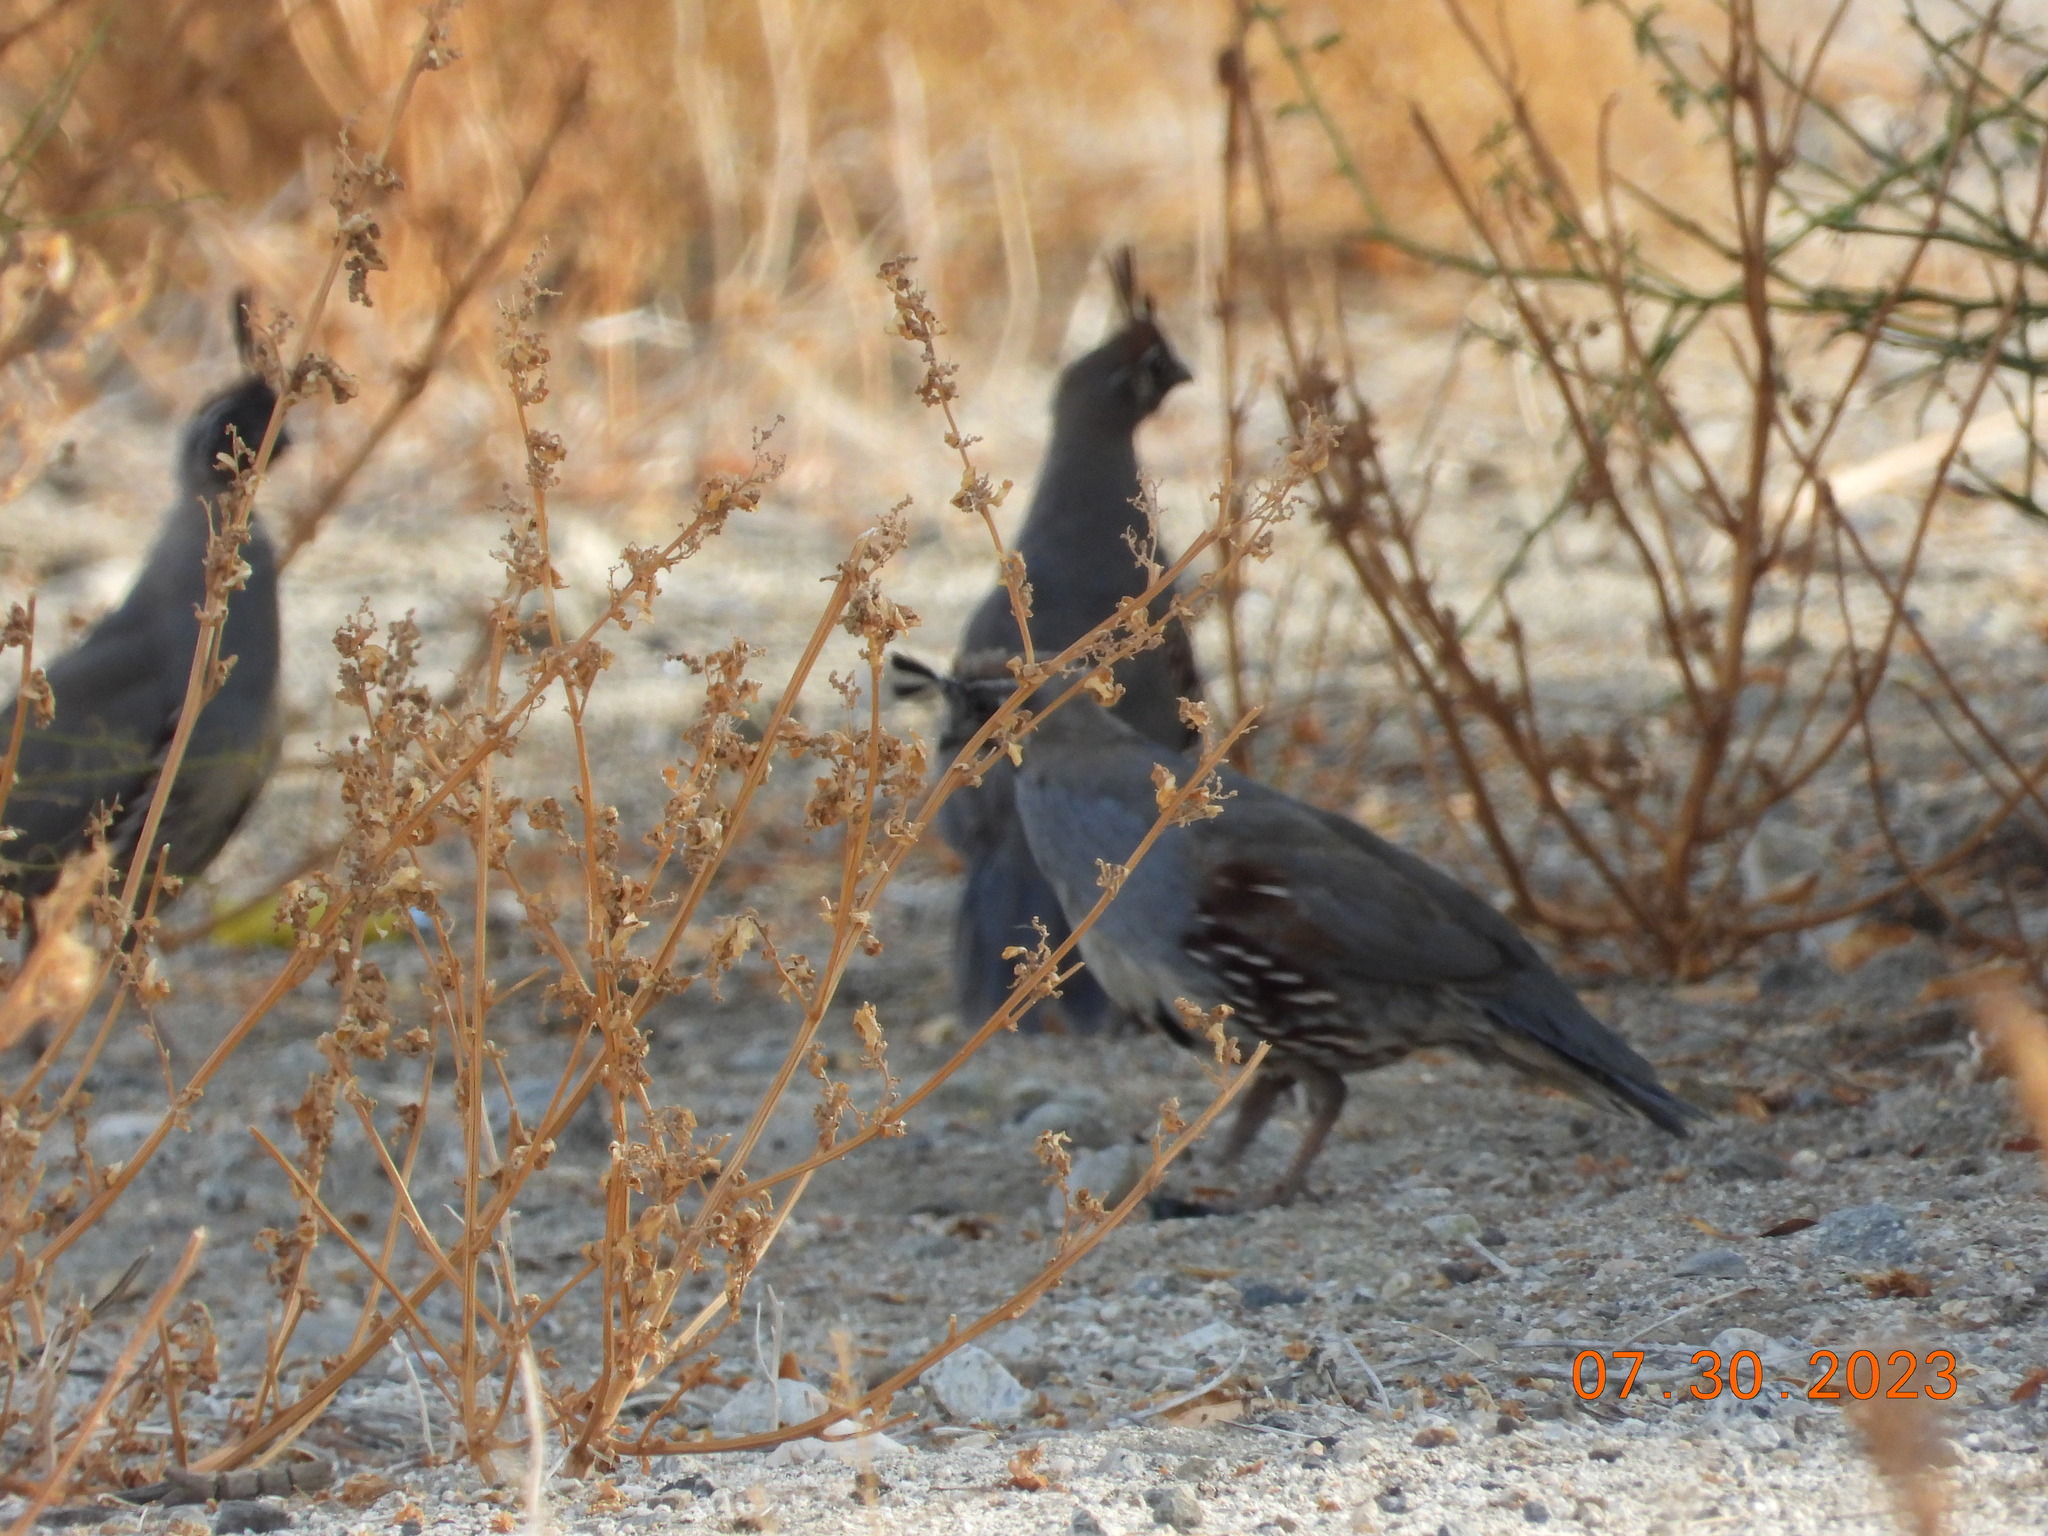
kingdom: Animalia
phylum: Chordata
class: Aves
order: Galliformes
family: Odontophoridae
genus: Callipepla
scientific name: Callipepla gambelii
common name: Gambel's quail
